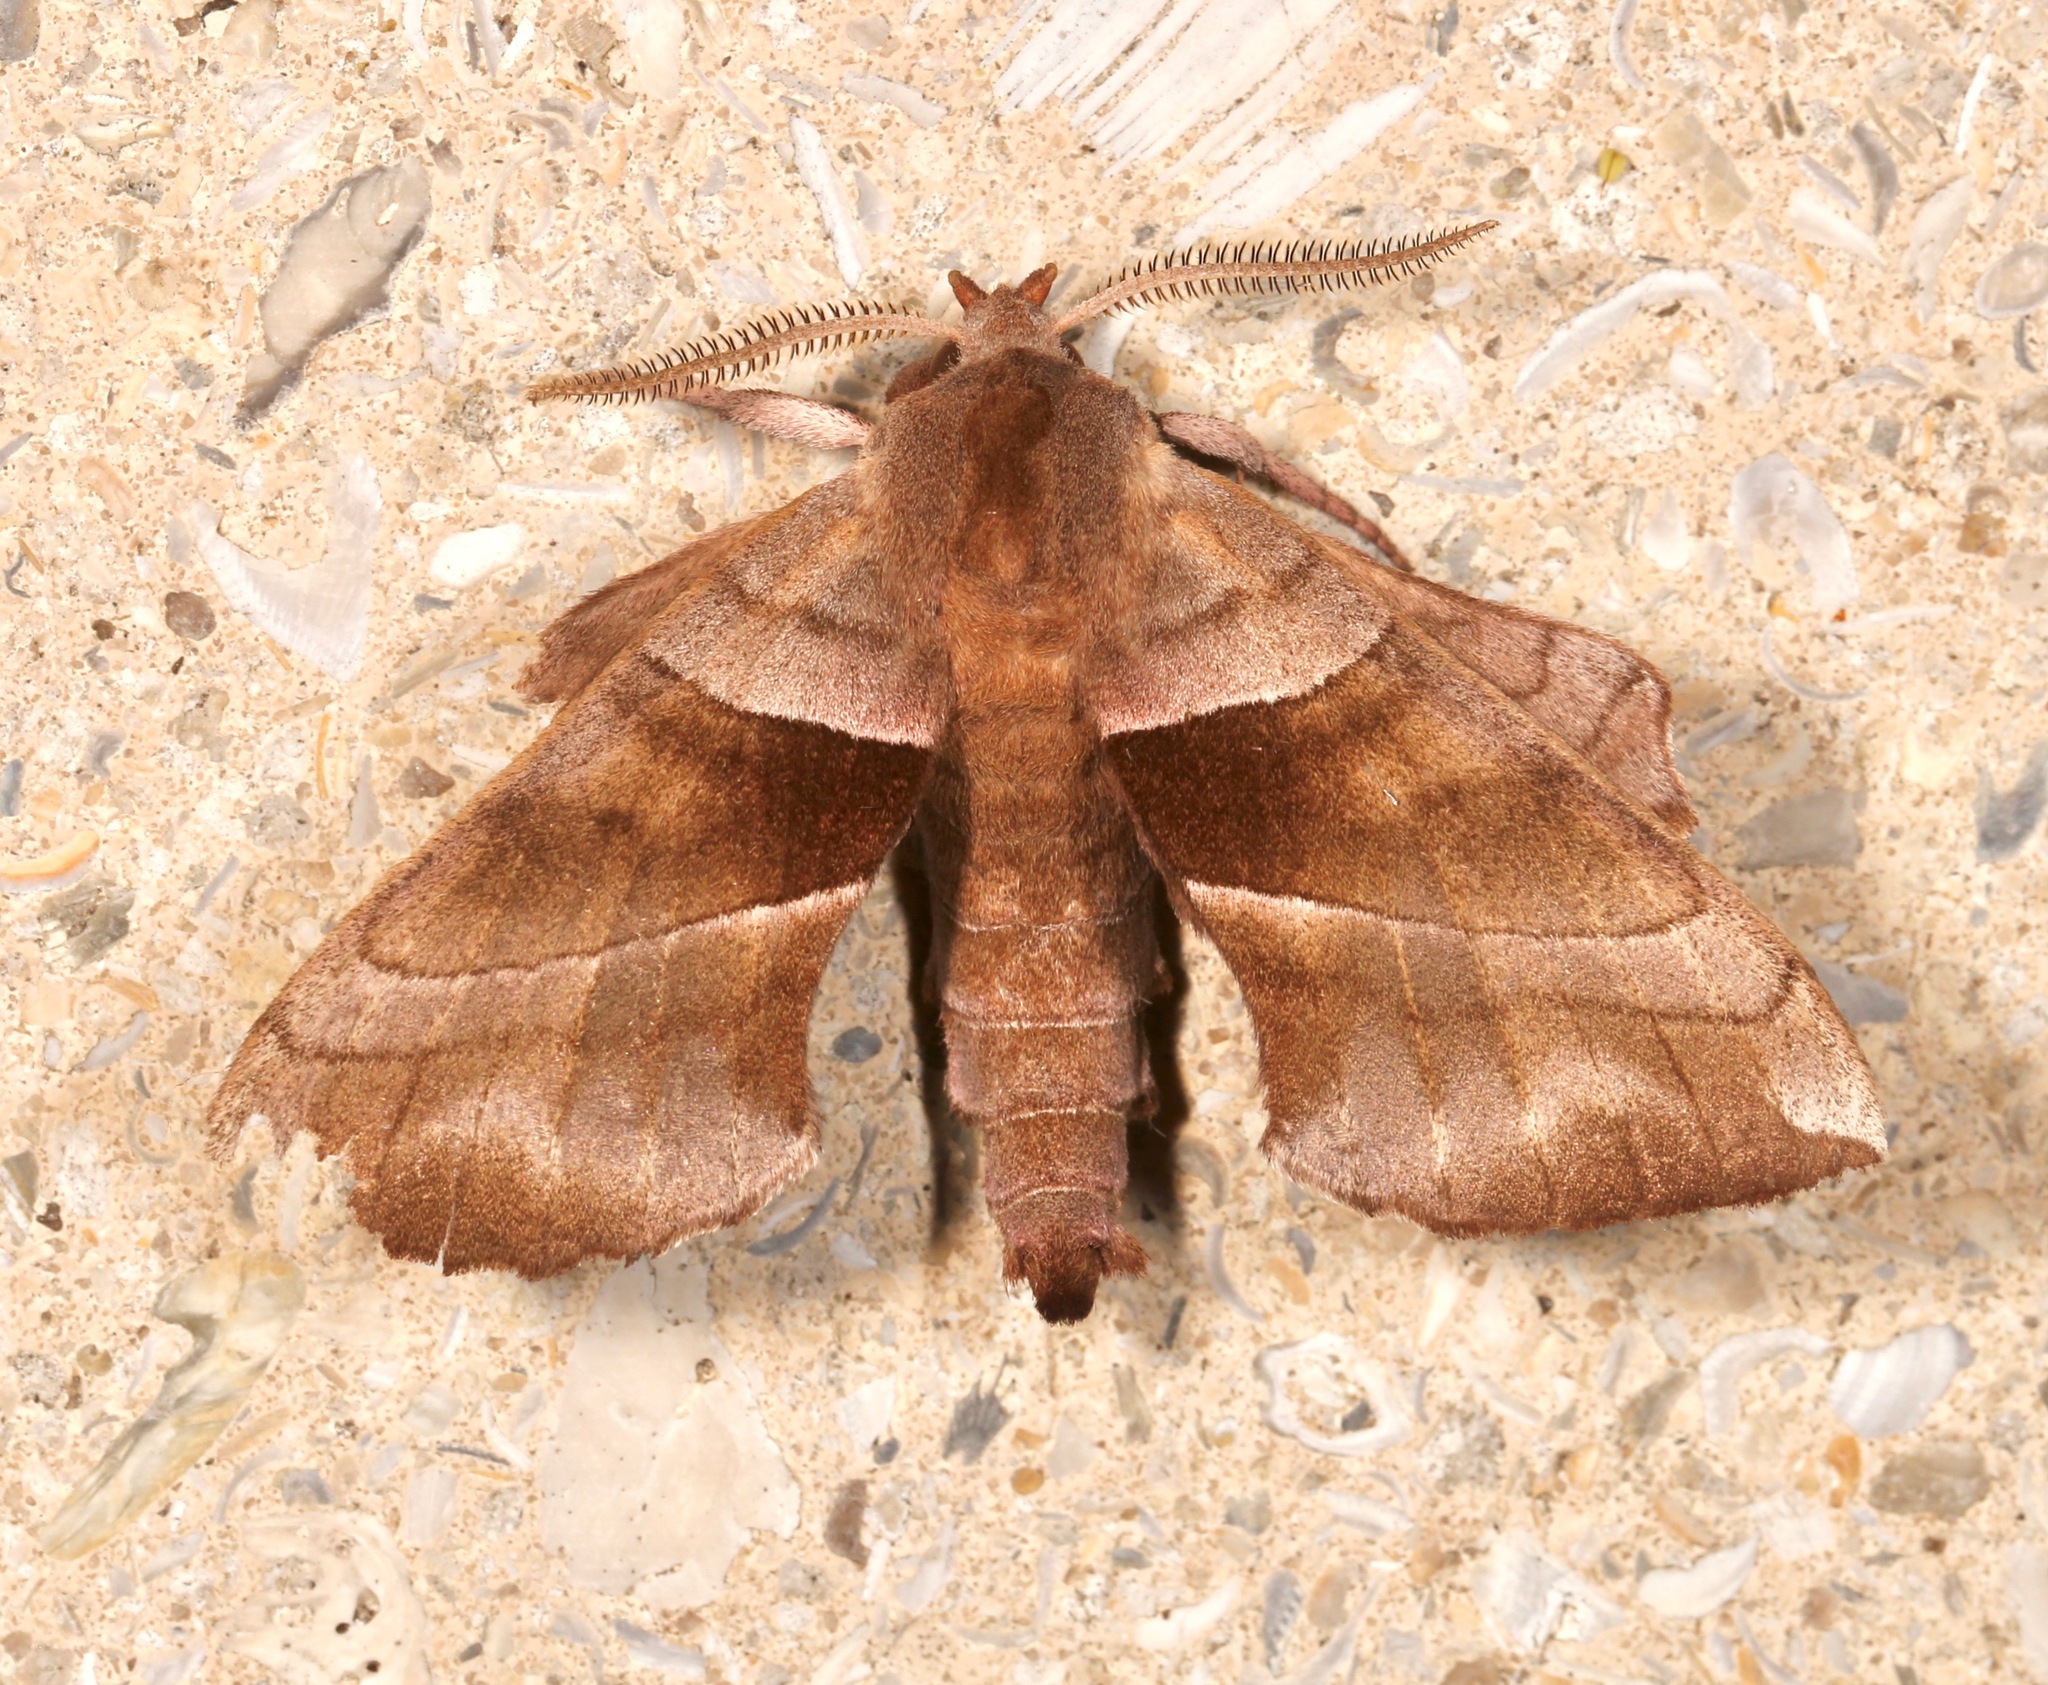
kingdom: Animalia
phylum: Arthropoda
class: Insecta
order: Lepidoptera
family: Sphingidae
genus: Amorpha
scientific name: Amorpha juglandis
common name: Walnut sphinx
